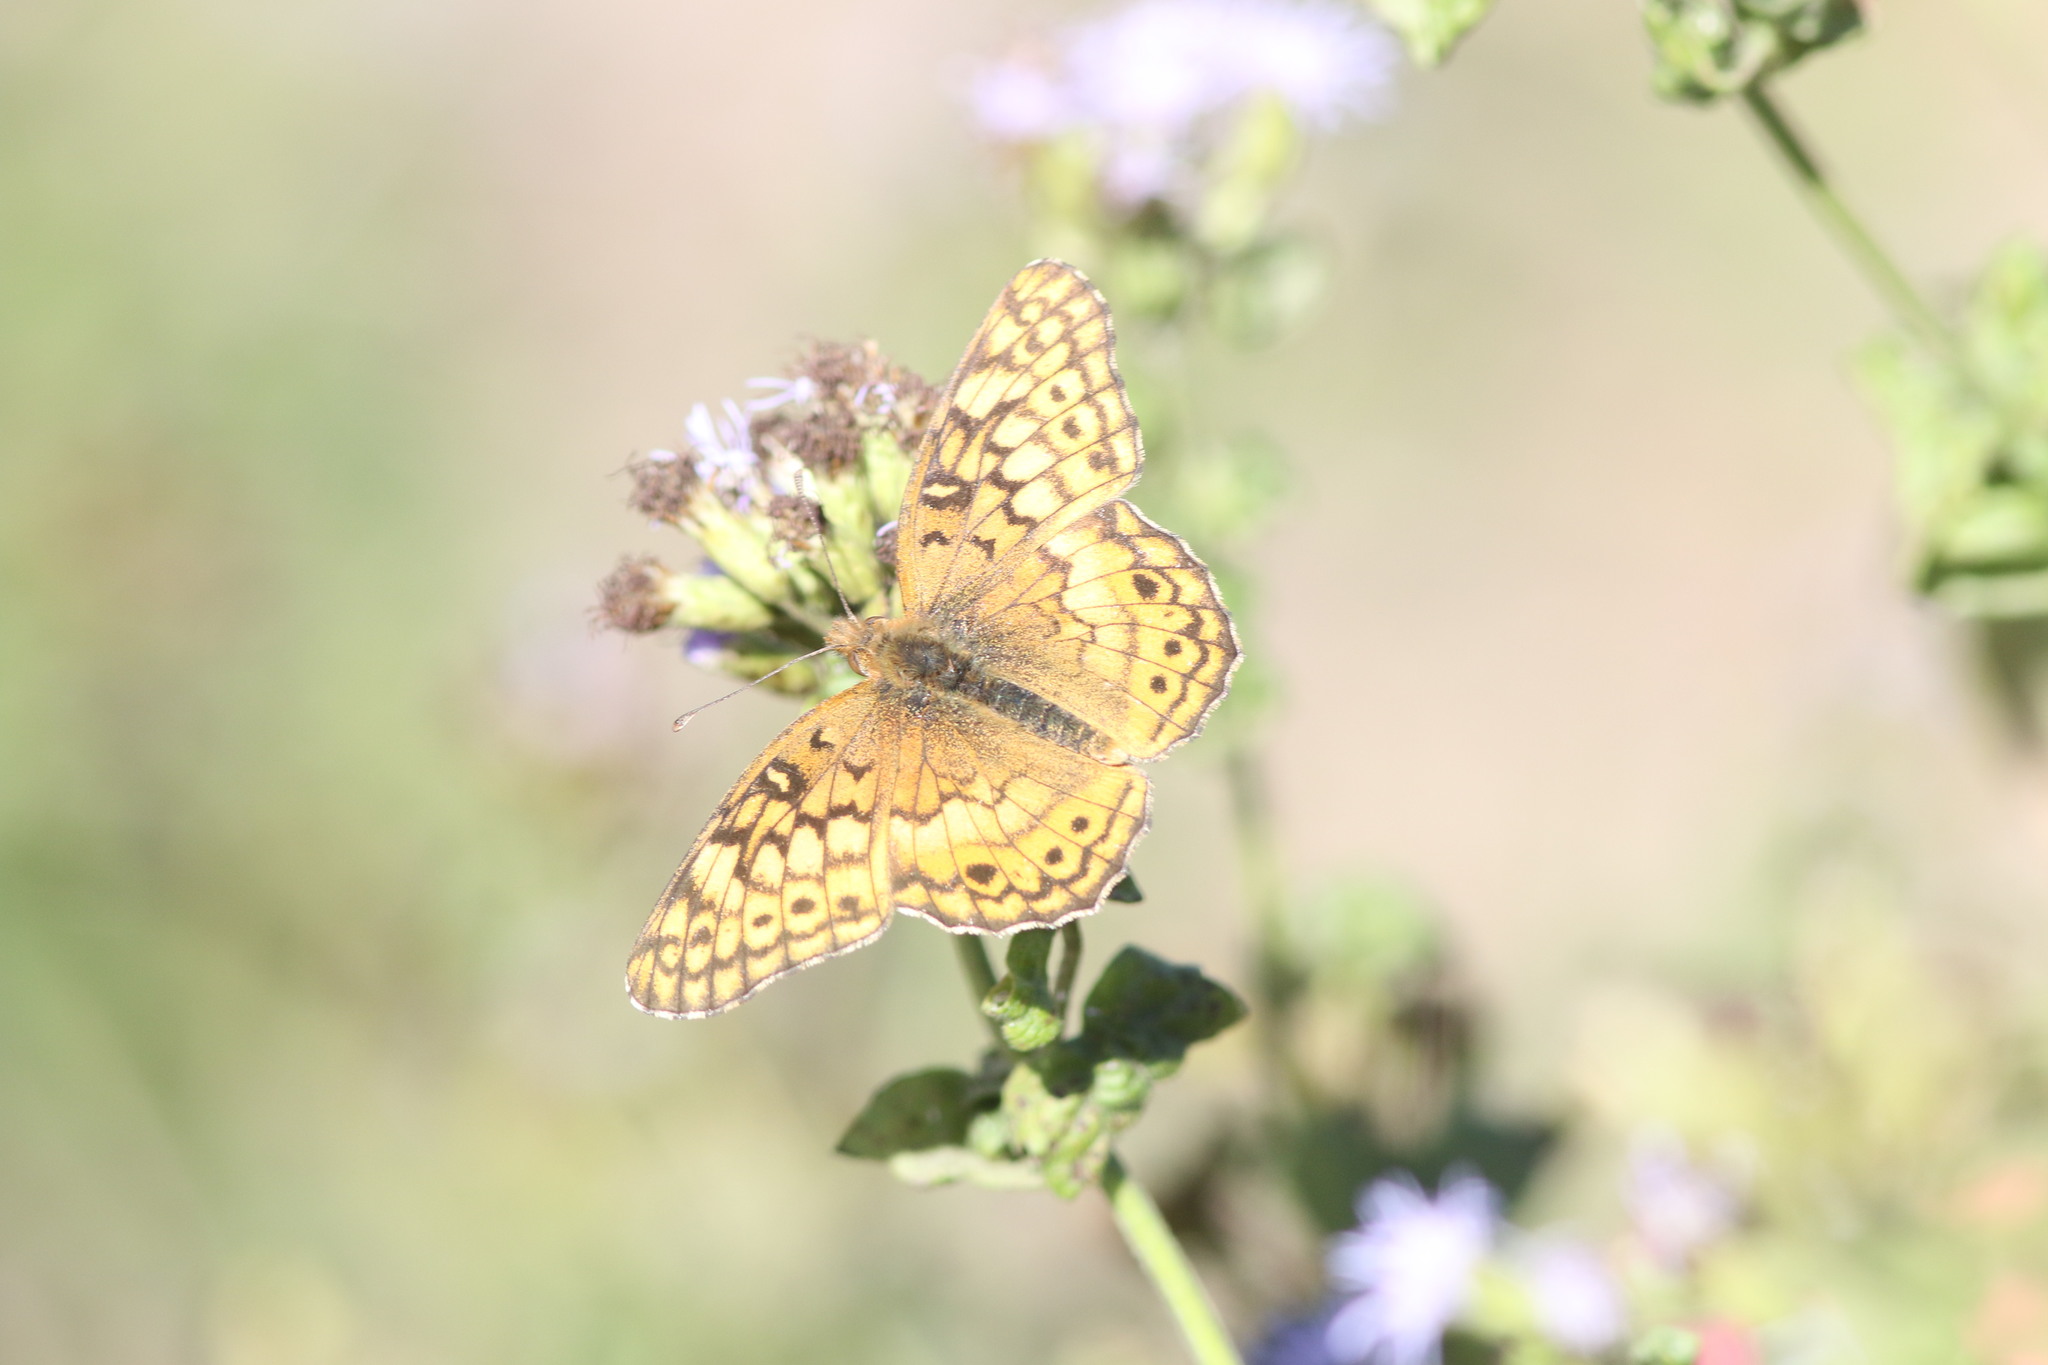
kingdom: Animalia
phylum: Arthropoda
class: Insecta
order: Lepidoptera
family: Nymphalidae
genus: Euptoieta
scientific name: Euptoieta claudia
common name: Variegated fritillary
